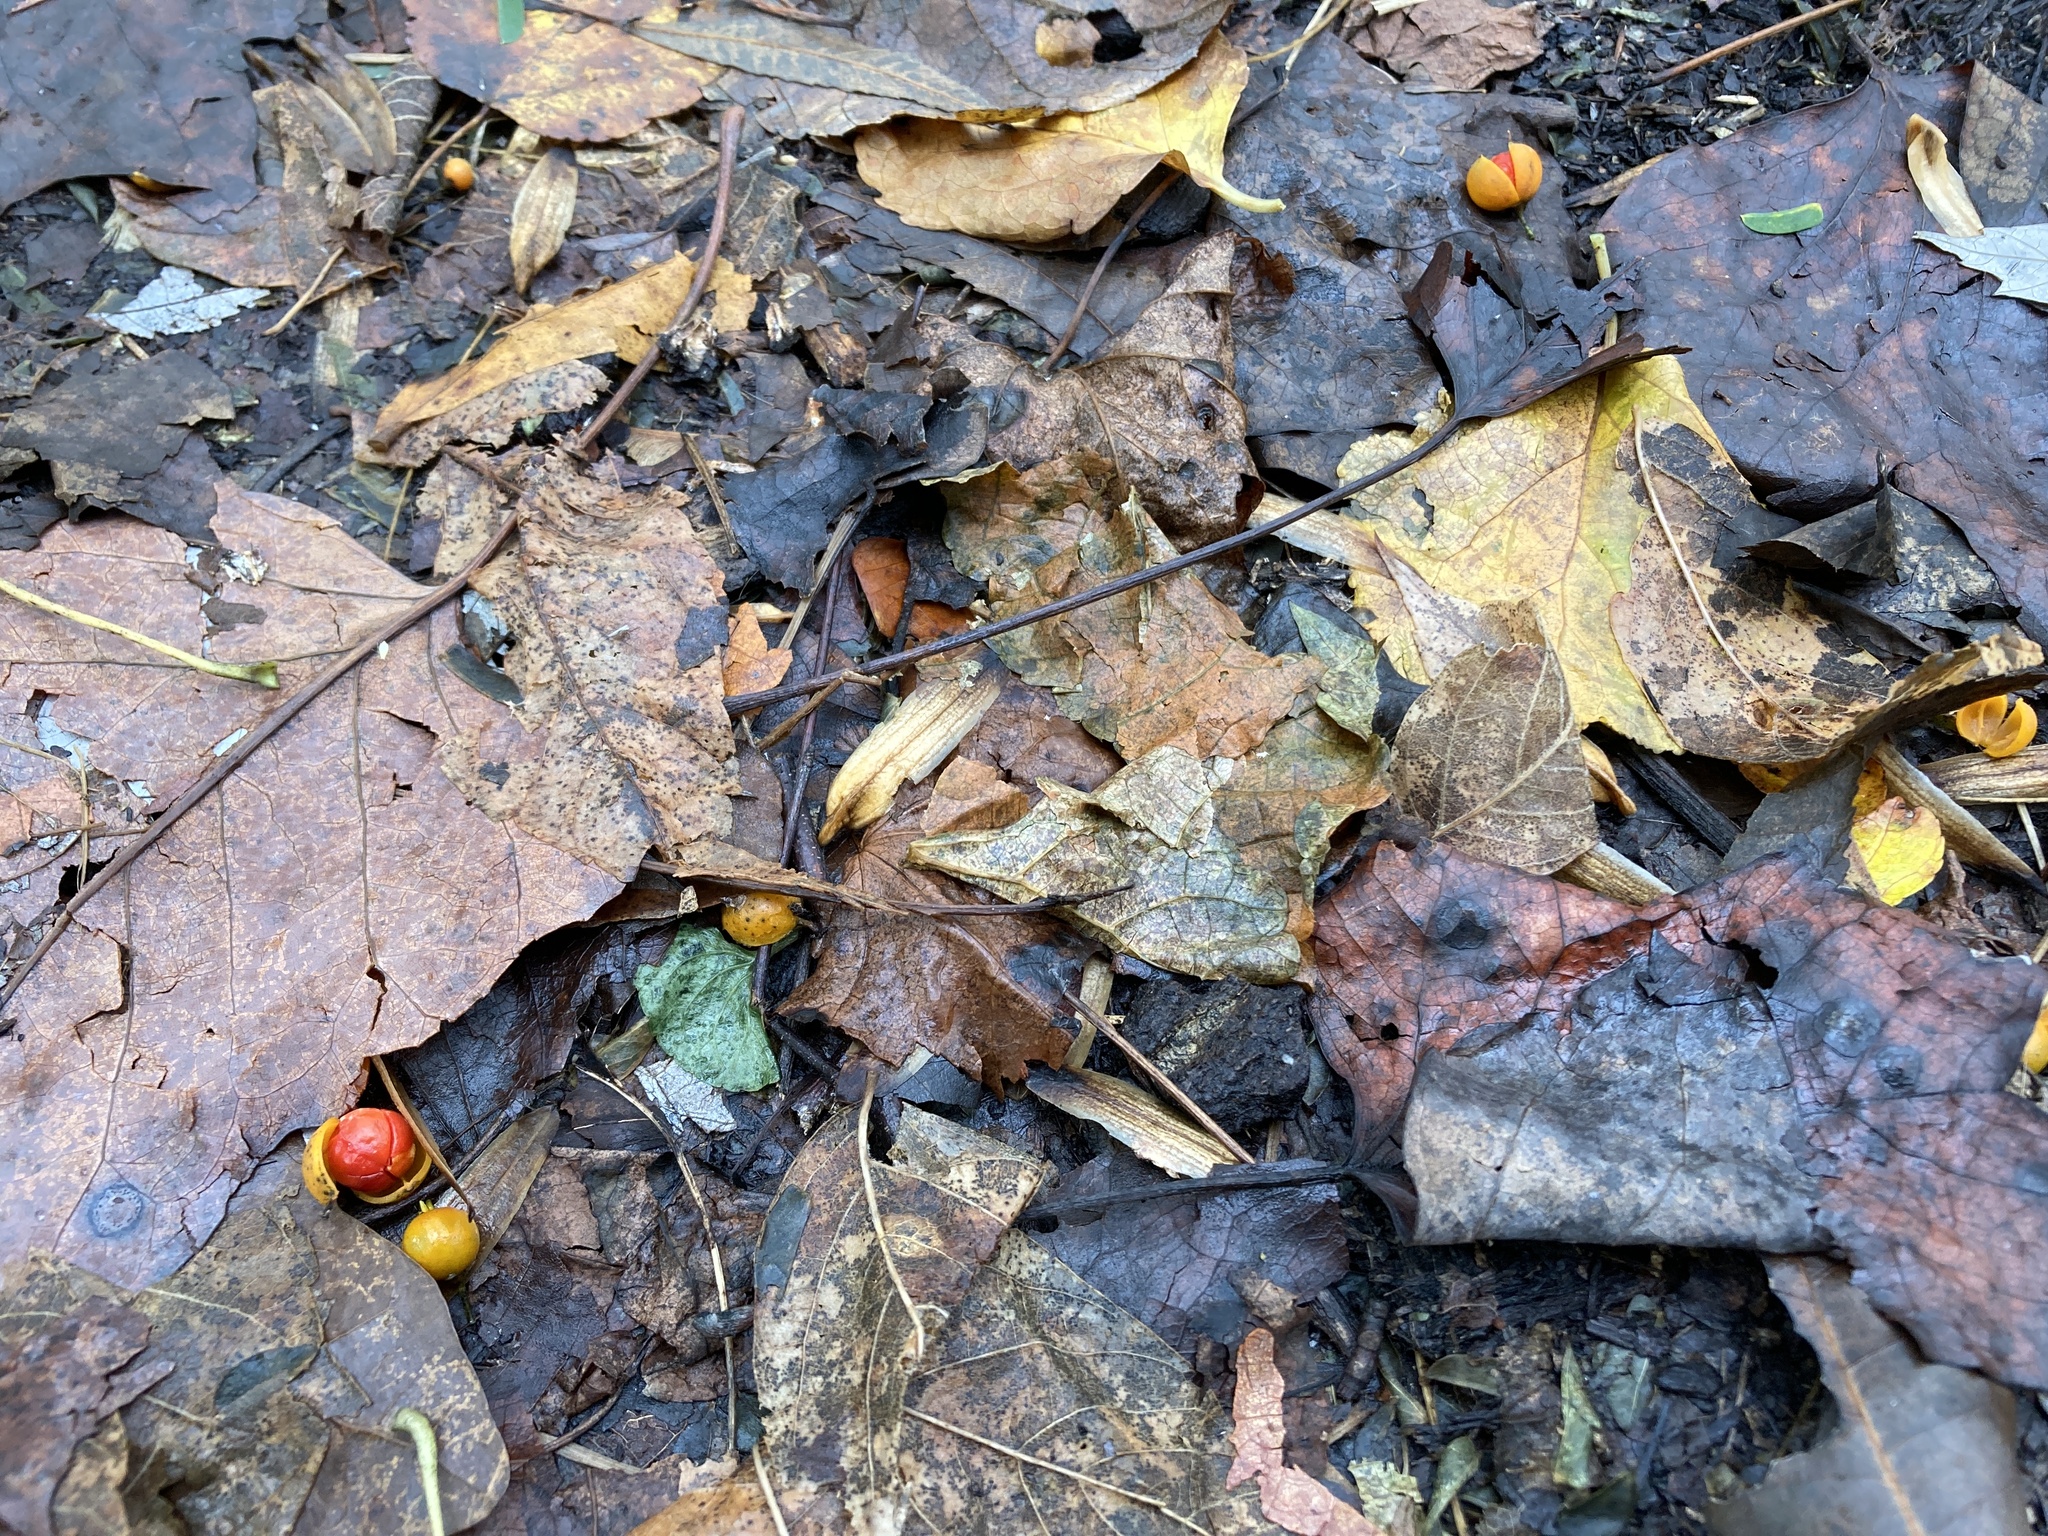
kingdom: Plantae
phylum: Tracheophyta
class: Magnoliopsida
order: Celastrales
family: Celastraceae
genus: Celastrus
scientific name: Celastrus orbiculatus
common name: Oriental bittersweet
